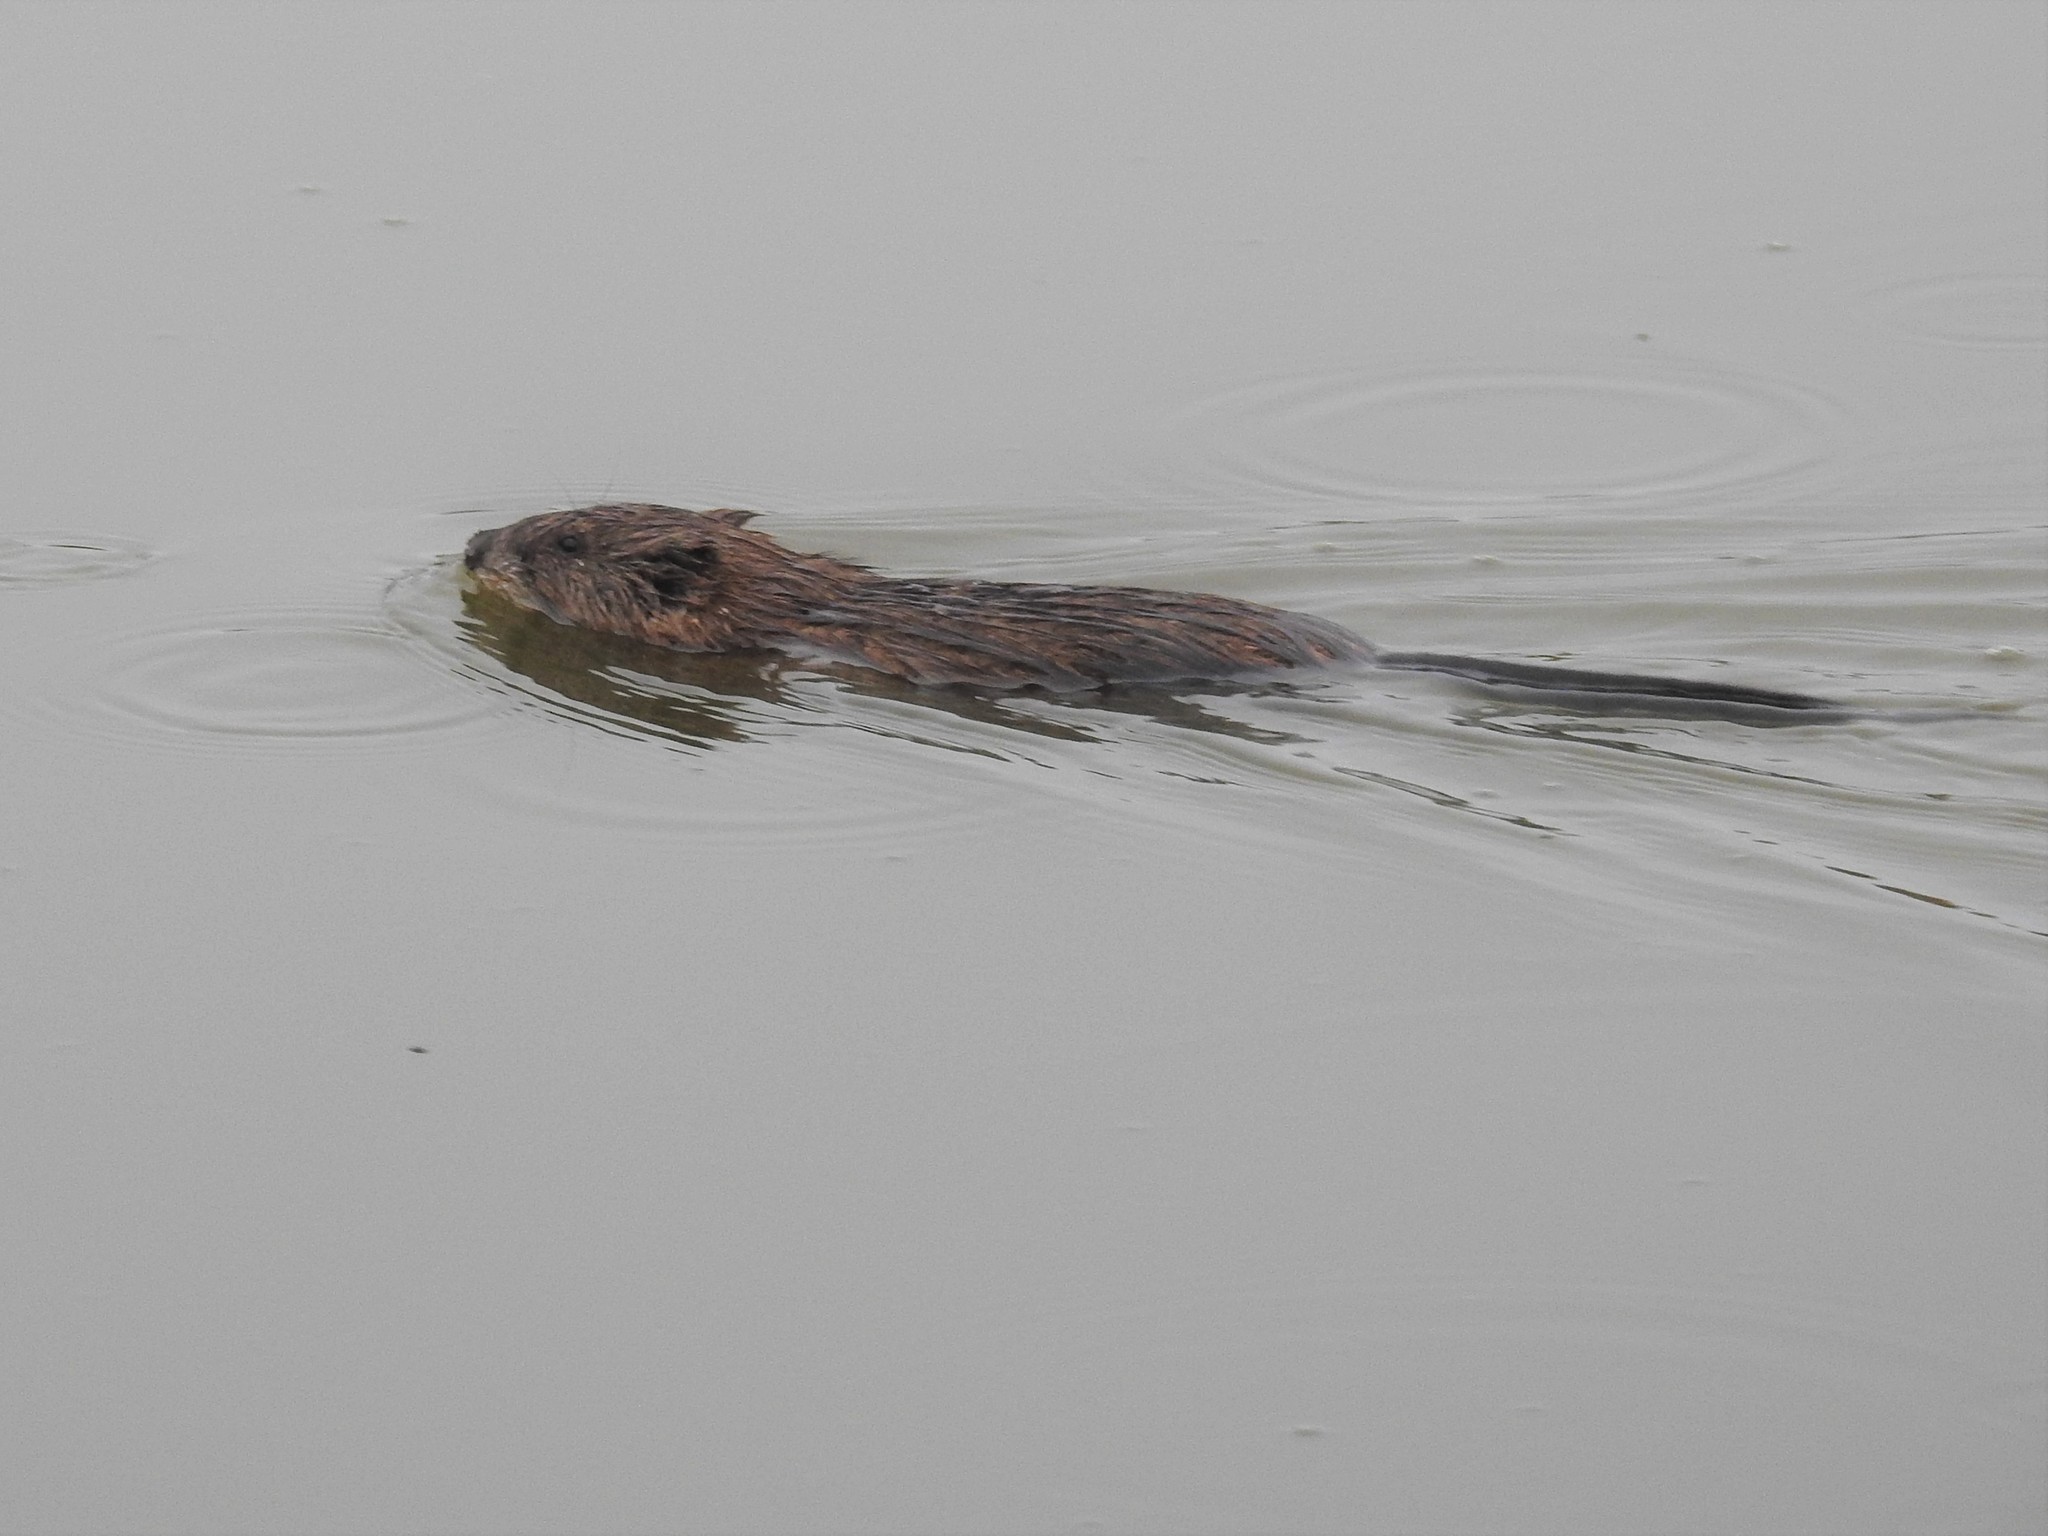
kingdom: Animalia
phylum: Chordata
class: Mammalia
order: Rodentia
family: Cricetidae
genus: Ondatra
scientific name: Ondatra zibethicus
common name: Muskrat
